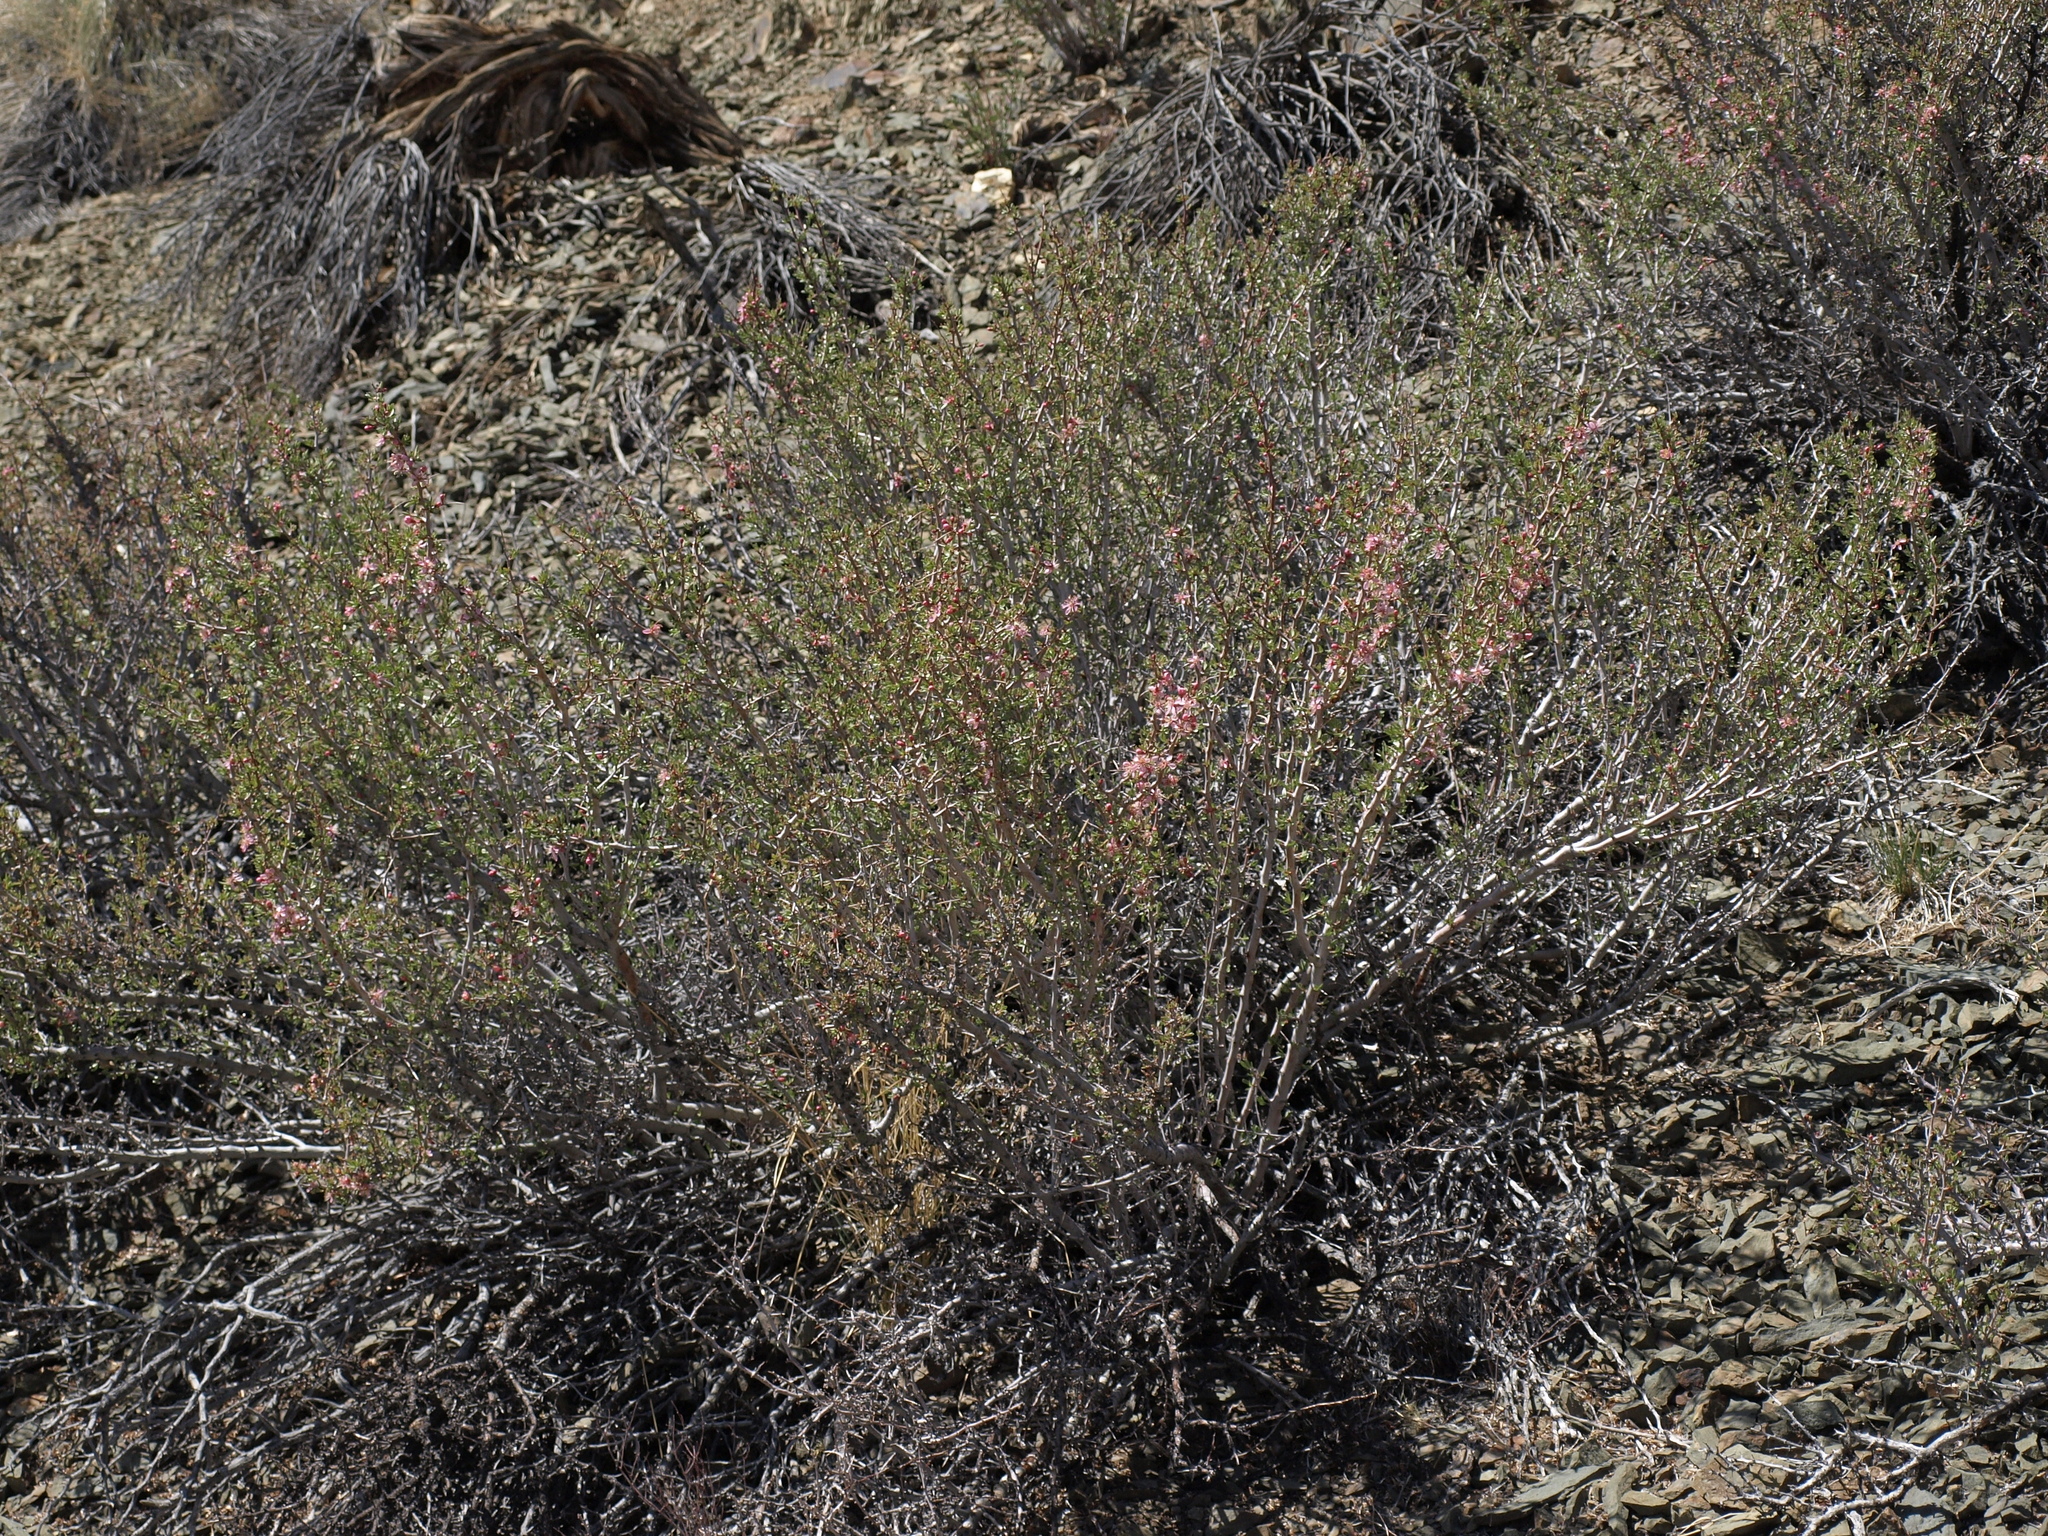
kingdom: Plantae
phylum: Tracheophyta
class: Magnoliopsida
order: Rosales
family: Rosaceae
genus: Prunus
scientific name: Prunus andersonii
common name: Desert peach
